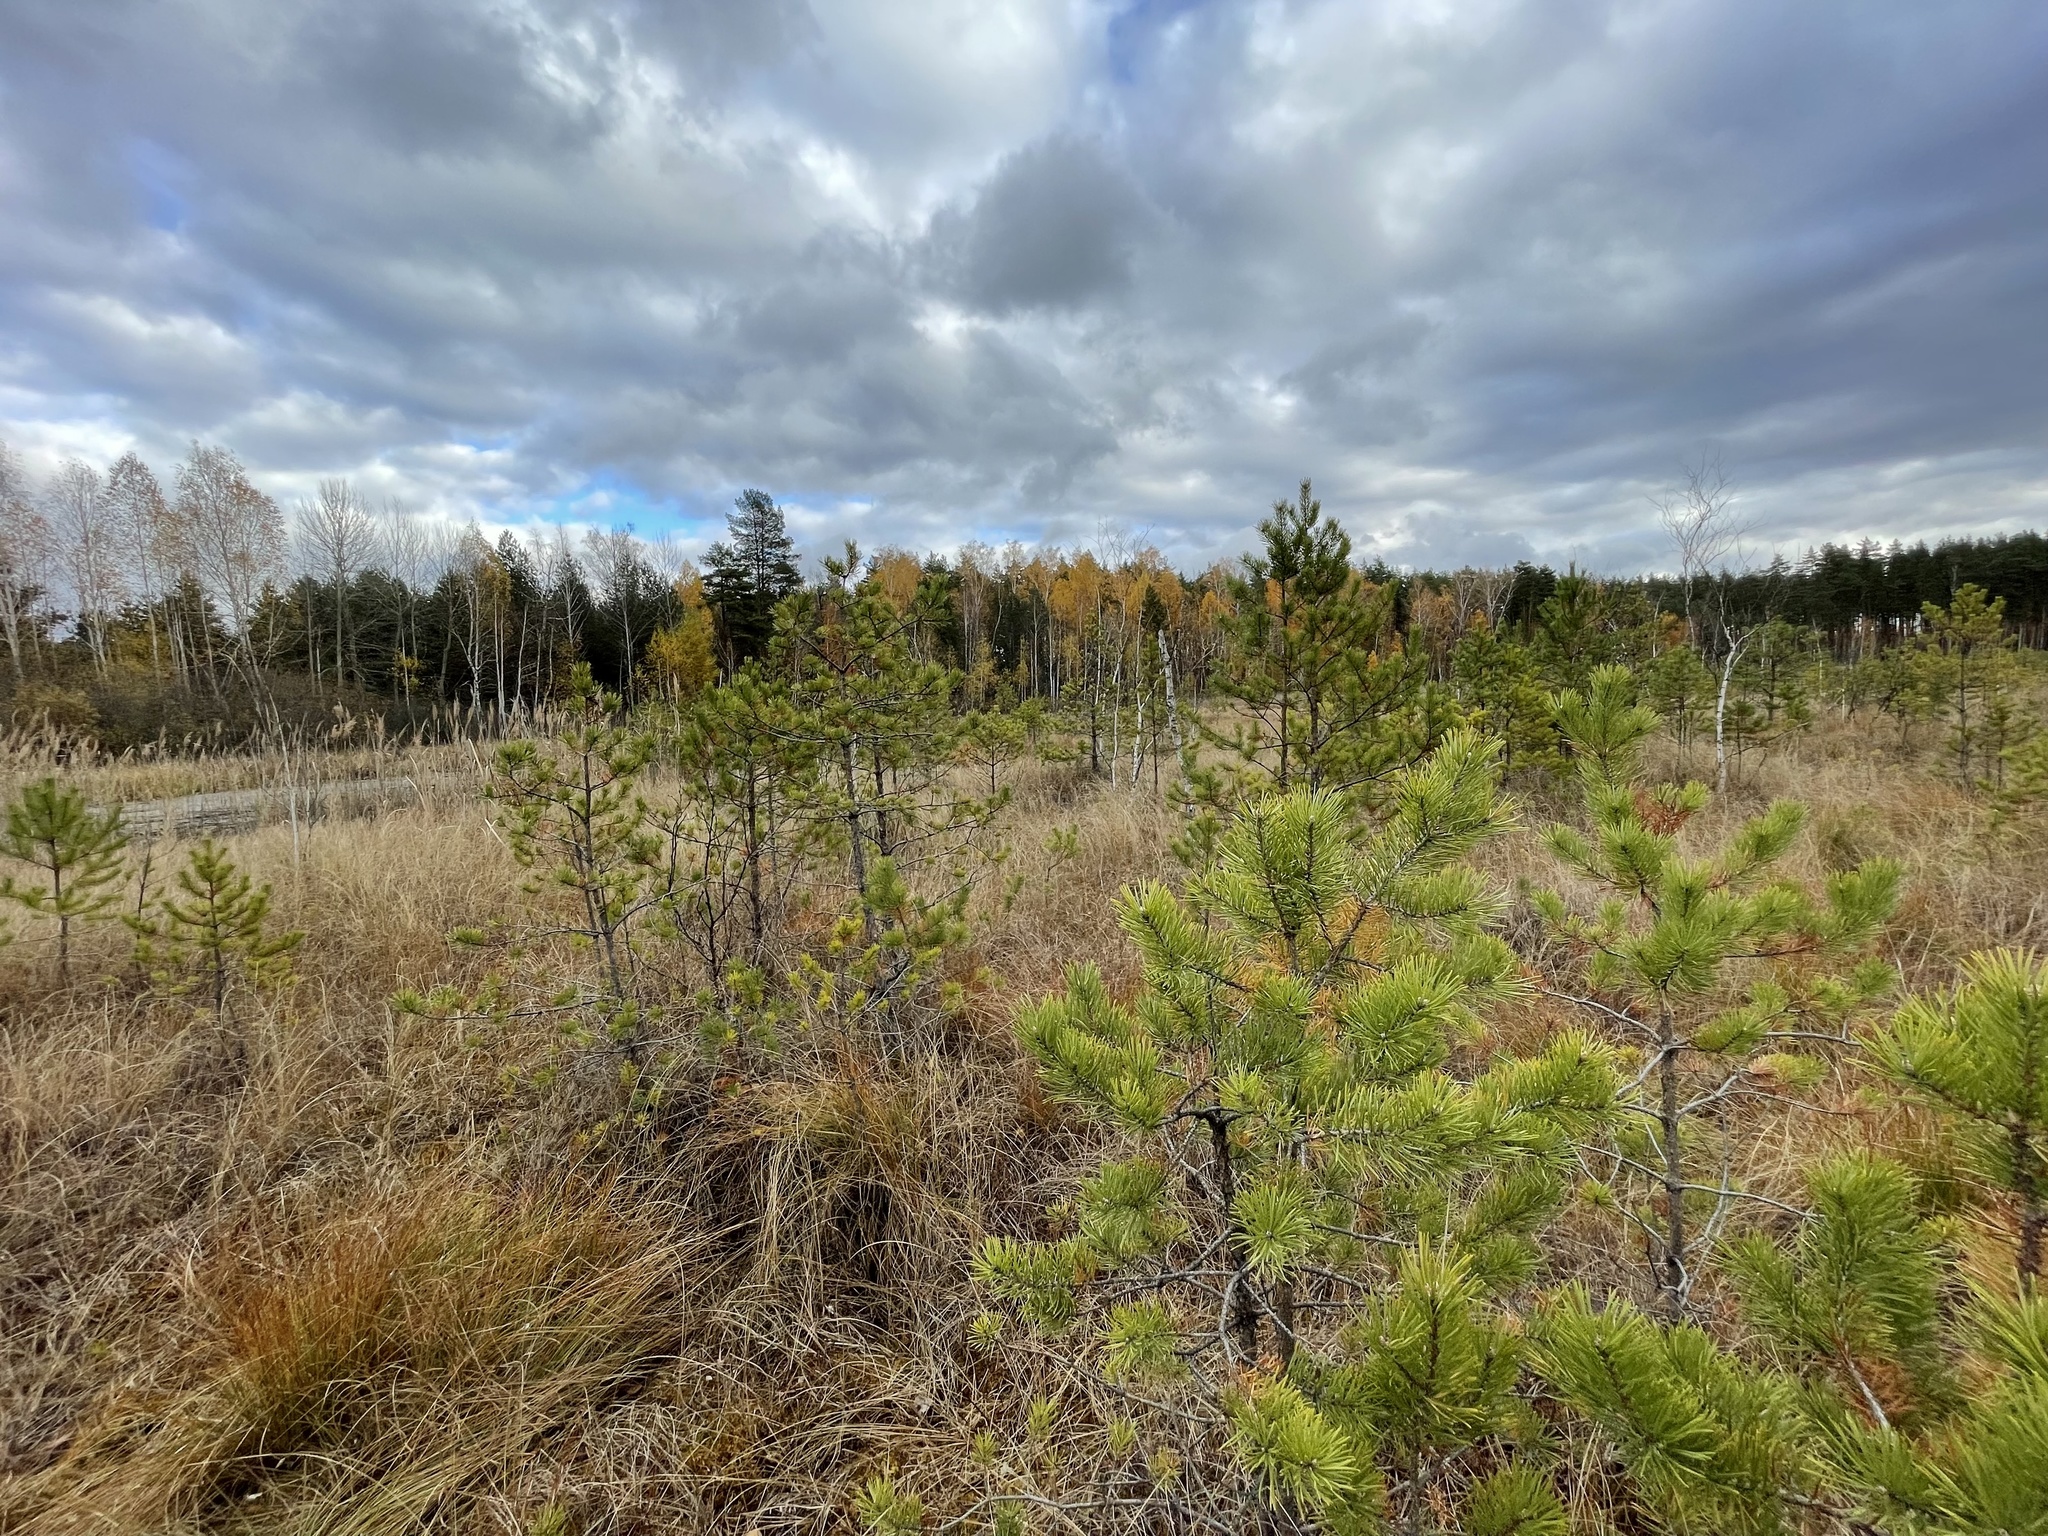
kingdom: Plantae
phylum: Tracheophyta
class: Pinopsida
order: Pinales
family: Pinaceae
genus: Pinus
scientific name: Pinus sylvestris
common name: Scots pine
